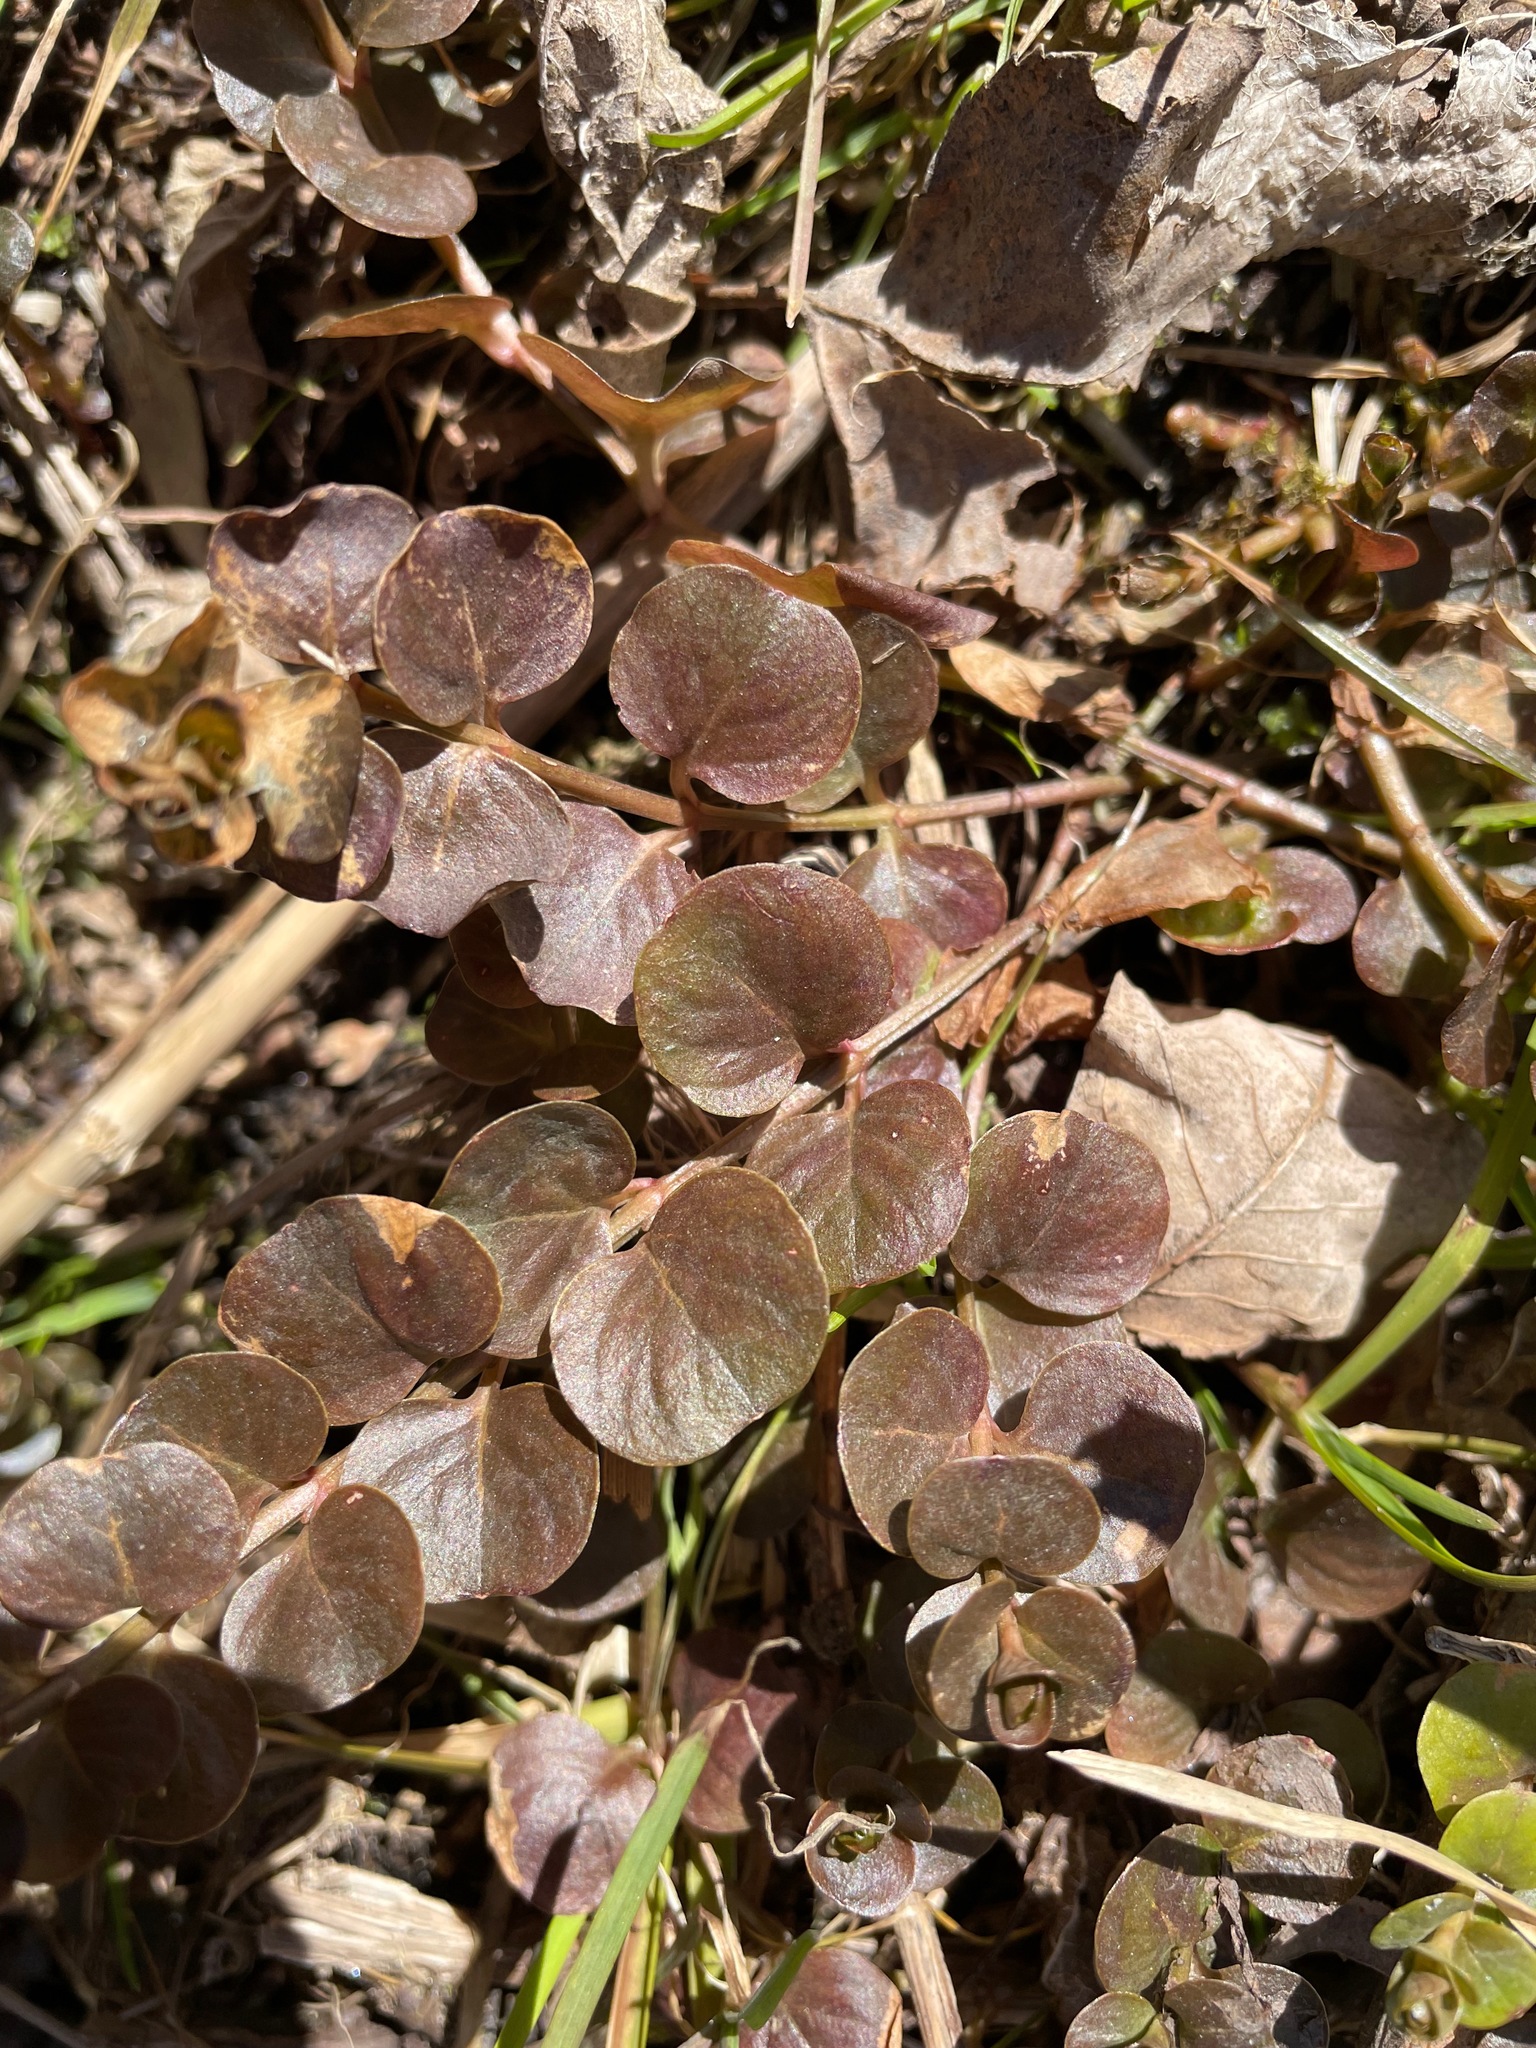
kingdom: Plantae
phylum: Tracheophyta
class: Magnoliopsida
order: Ericales
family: Primulaceae
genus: Lysimachia
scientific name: Lysimachia nummularia
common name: Moneywort
